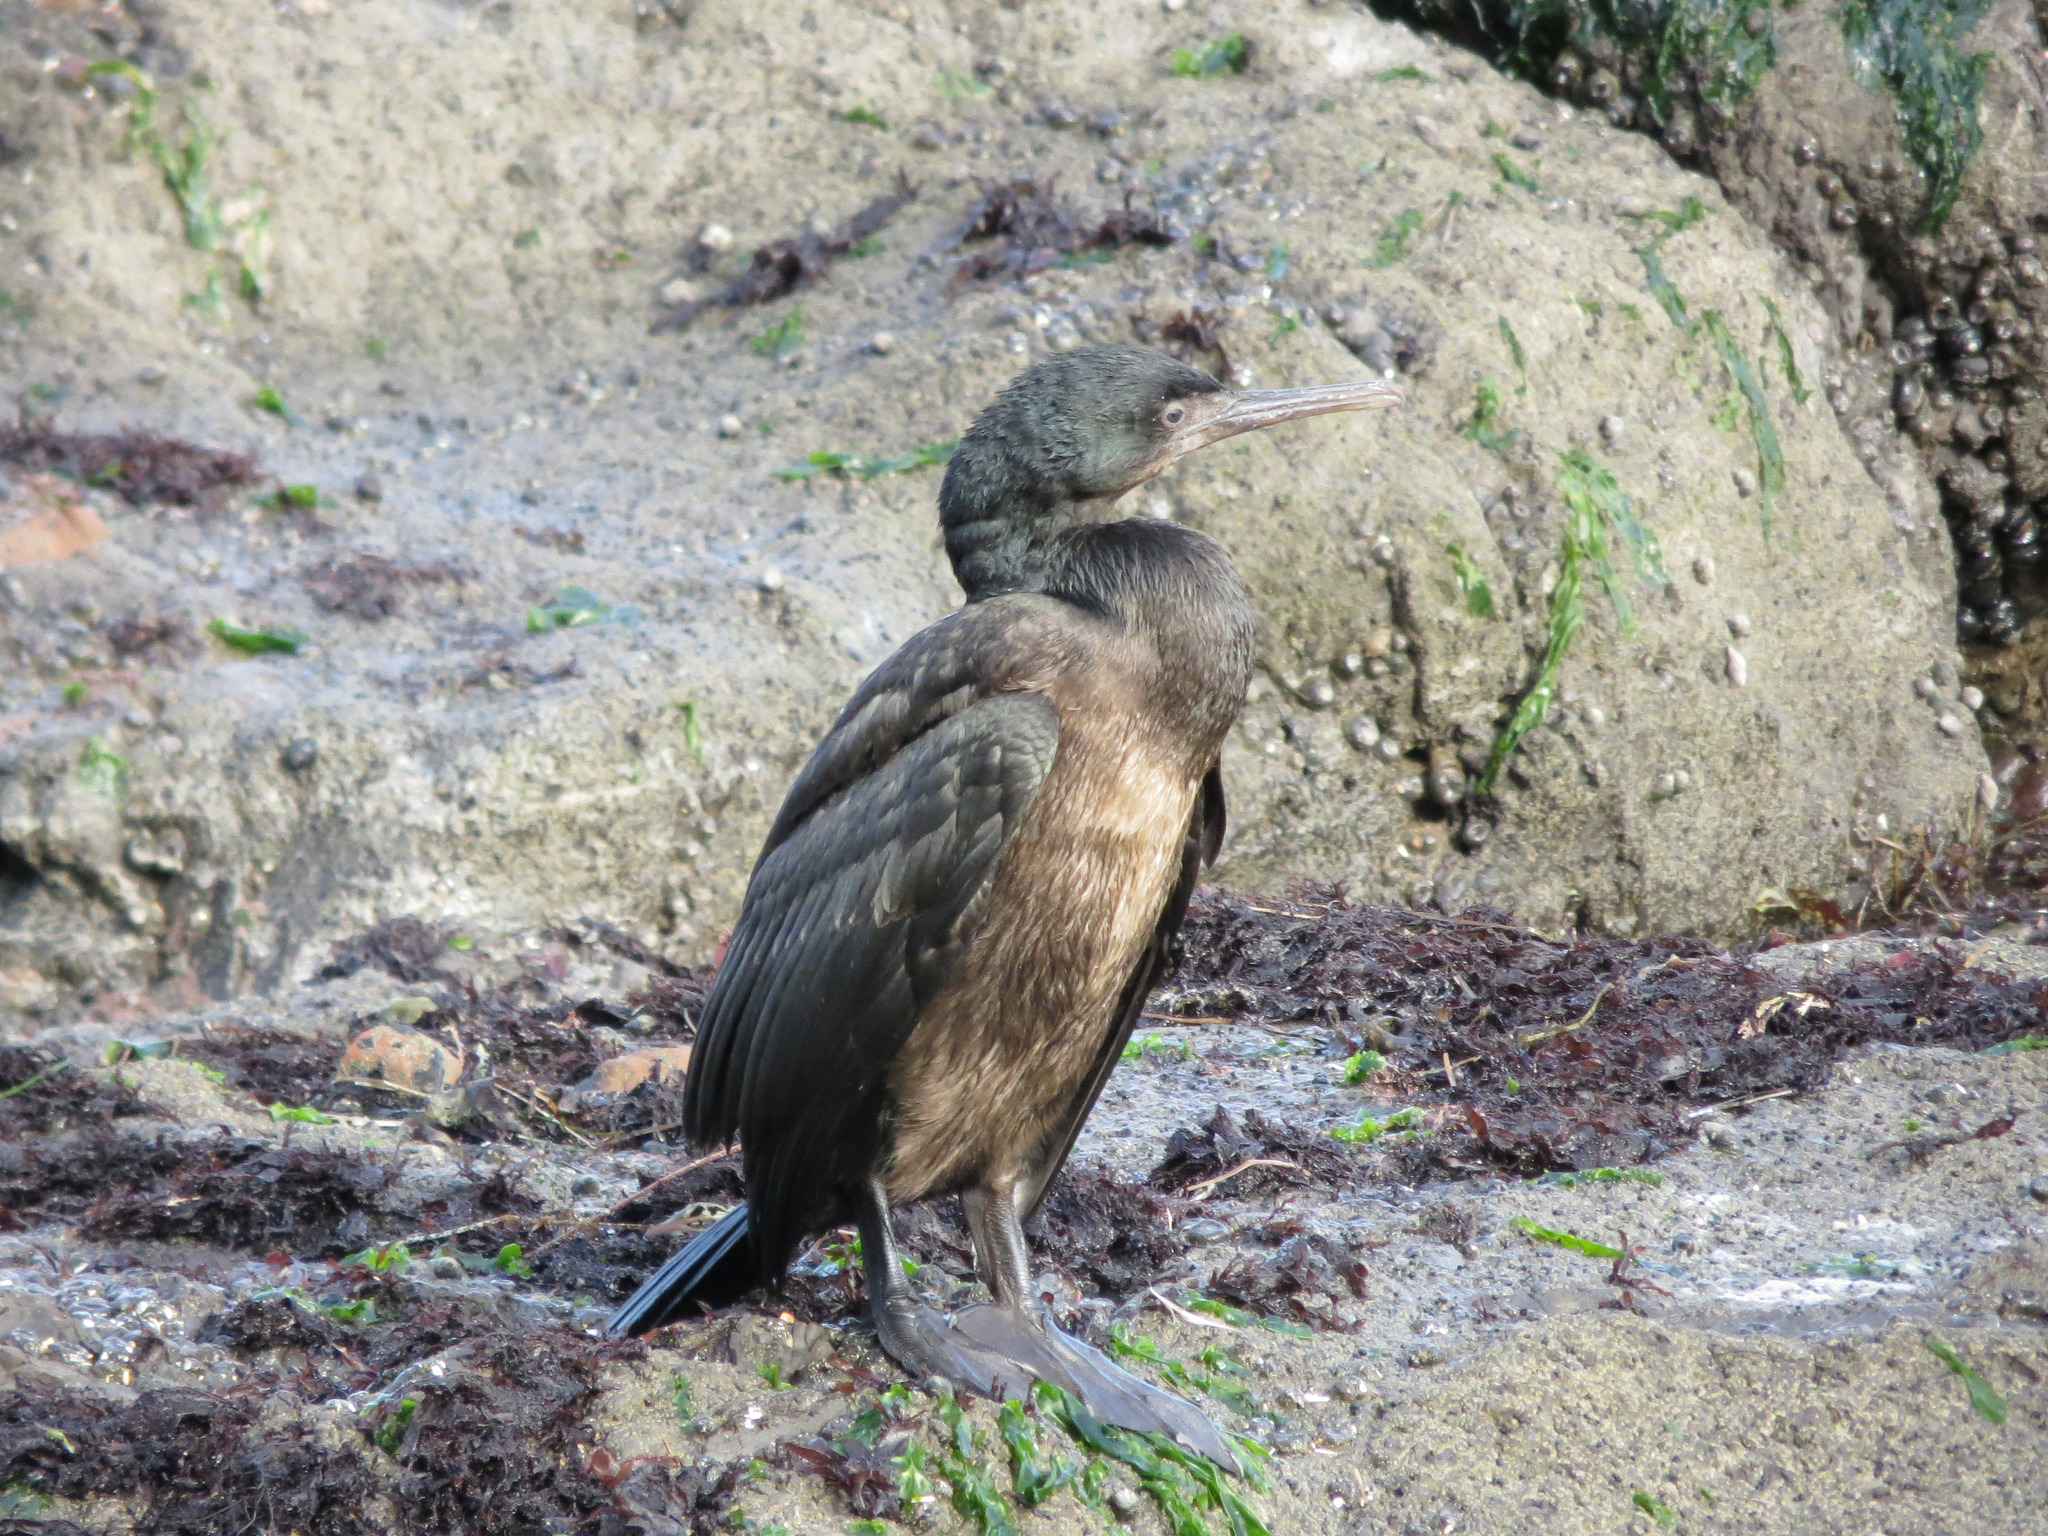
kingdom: Animalia
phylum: Chordata
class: Aves
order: Suliformes
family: Phalacrocoracidae
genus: Urile
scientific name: Urile penicillatus
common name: Brandt's cormorant
